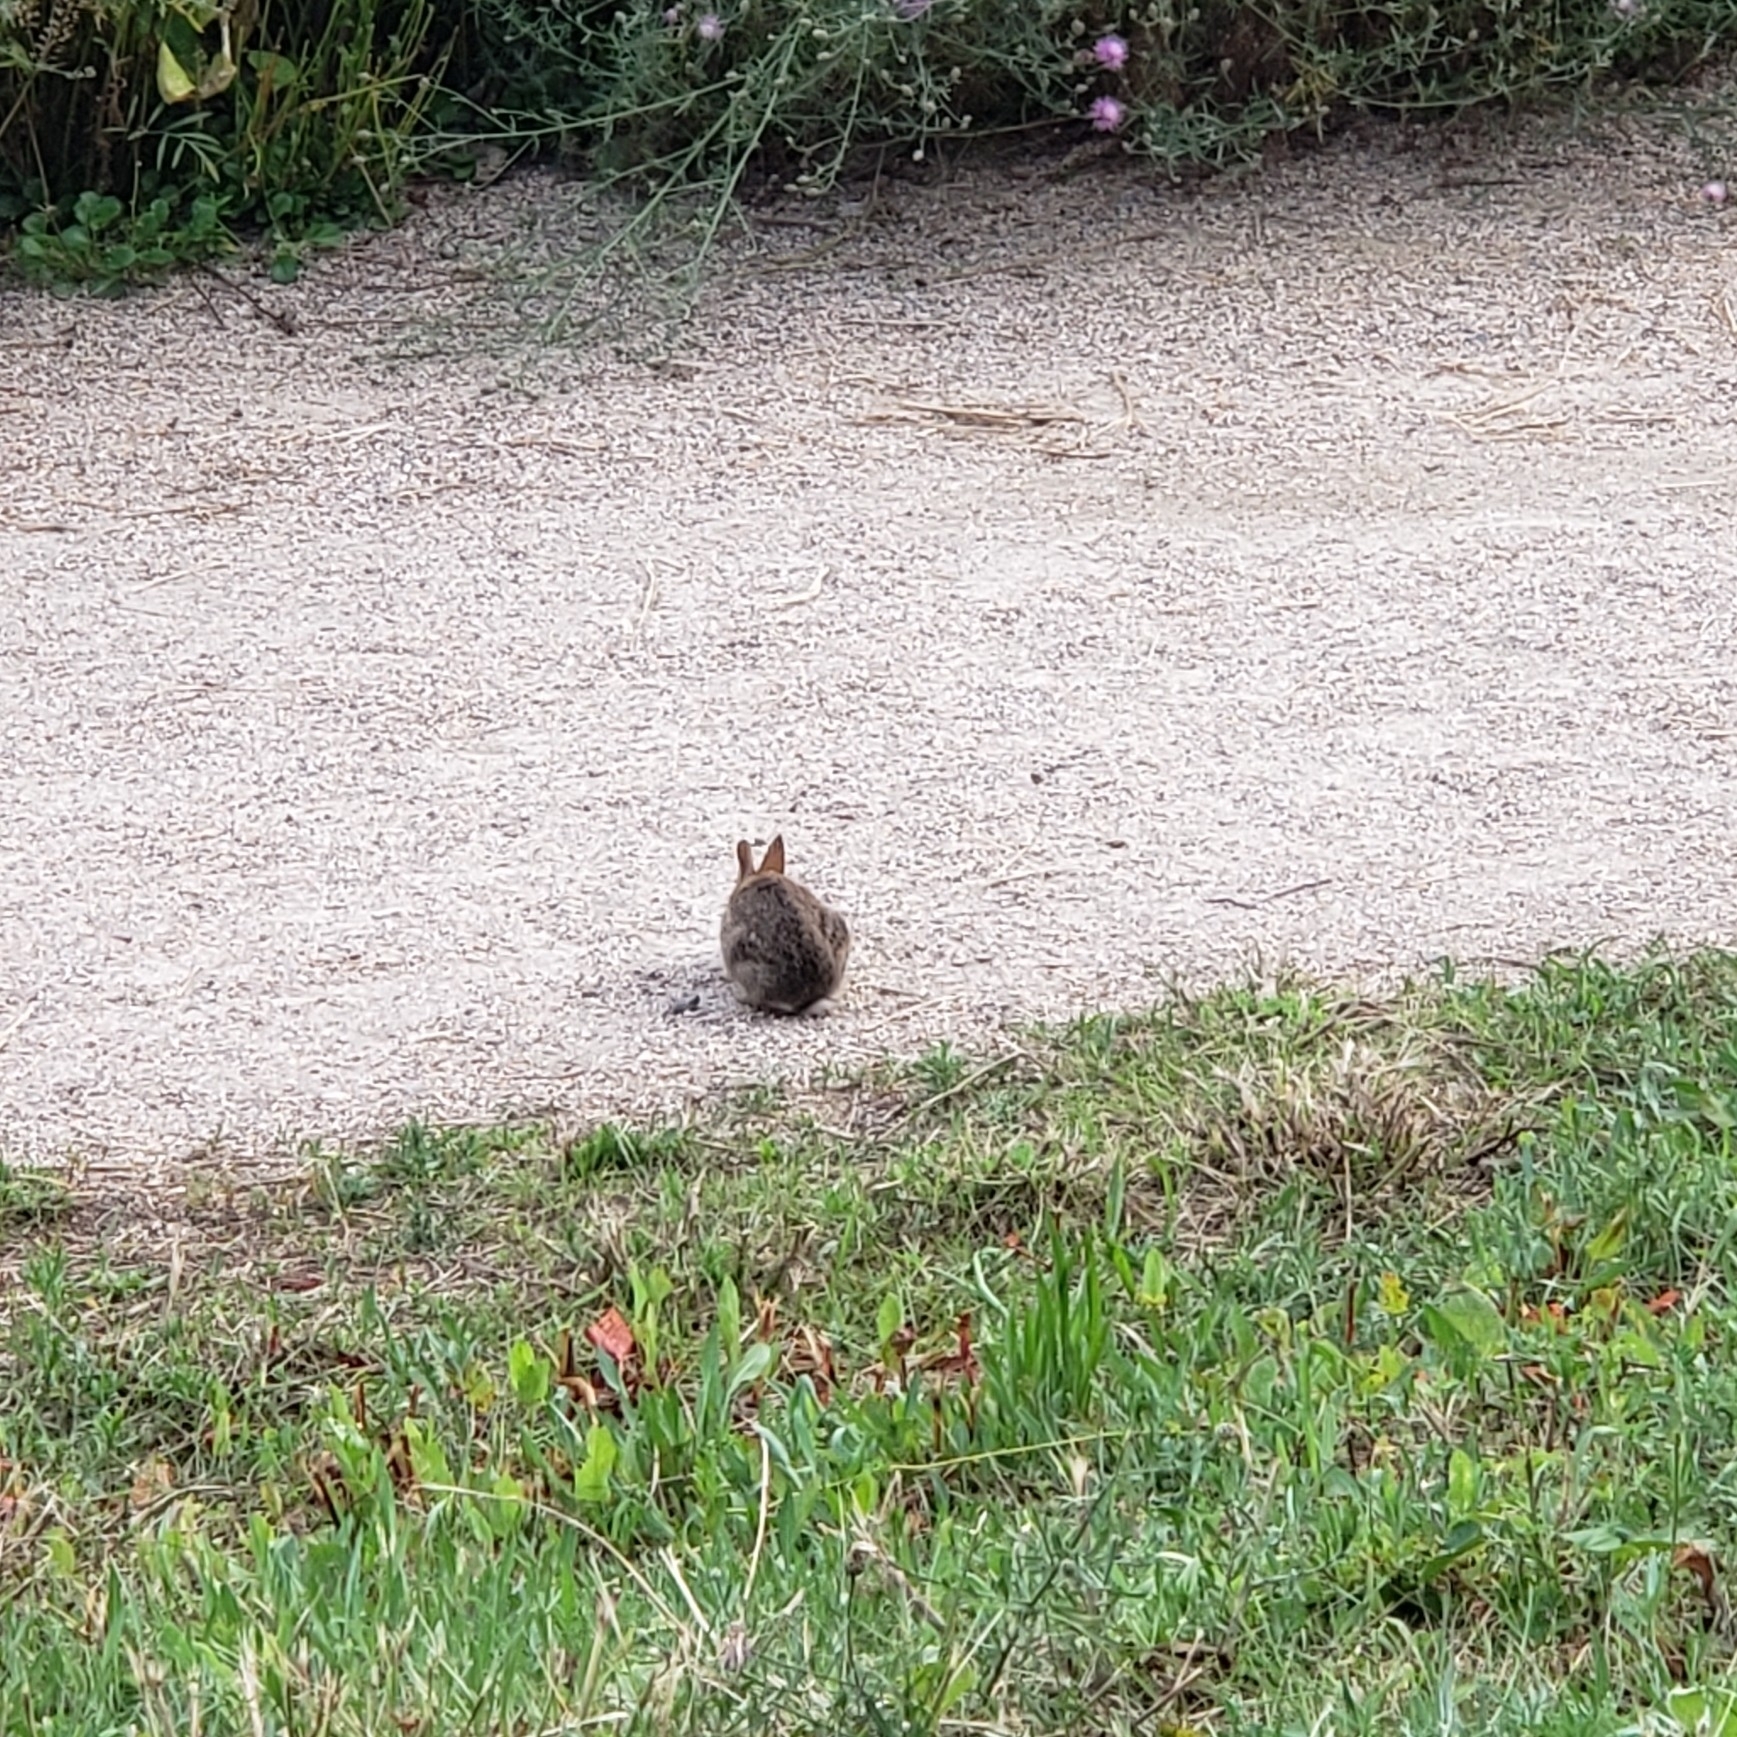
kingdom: Animalia
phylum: Chordata
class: Mammalia
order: Lagomorpha
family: Leporidae
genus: Sylvilagus
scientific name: Sylvilagus floridanus
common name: Eastern cottontail
